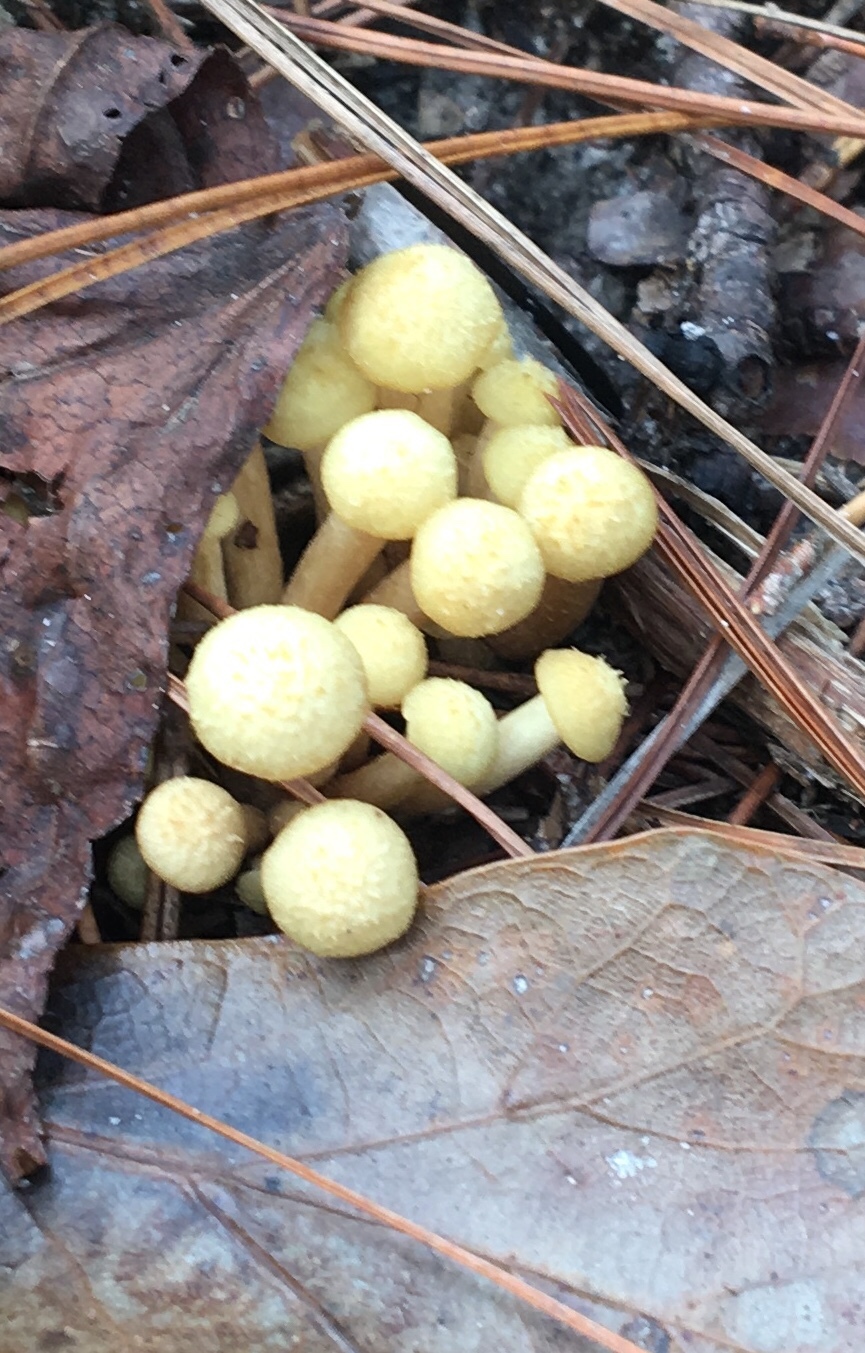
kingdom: Fungi
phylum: Basidiomycota
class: Agaricomycetes
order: Agaricales
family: Physalacriaceae
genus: Desarmillaria
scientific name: Desarmillaria caespitosa
